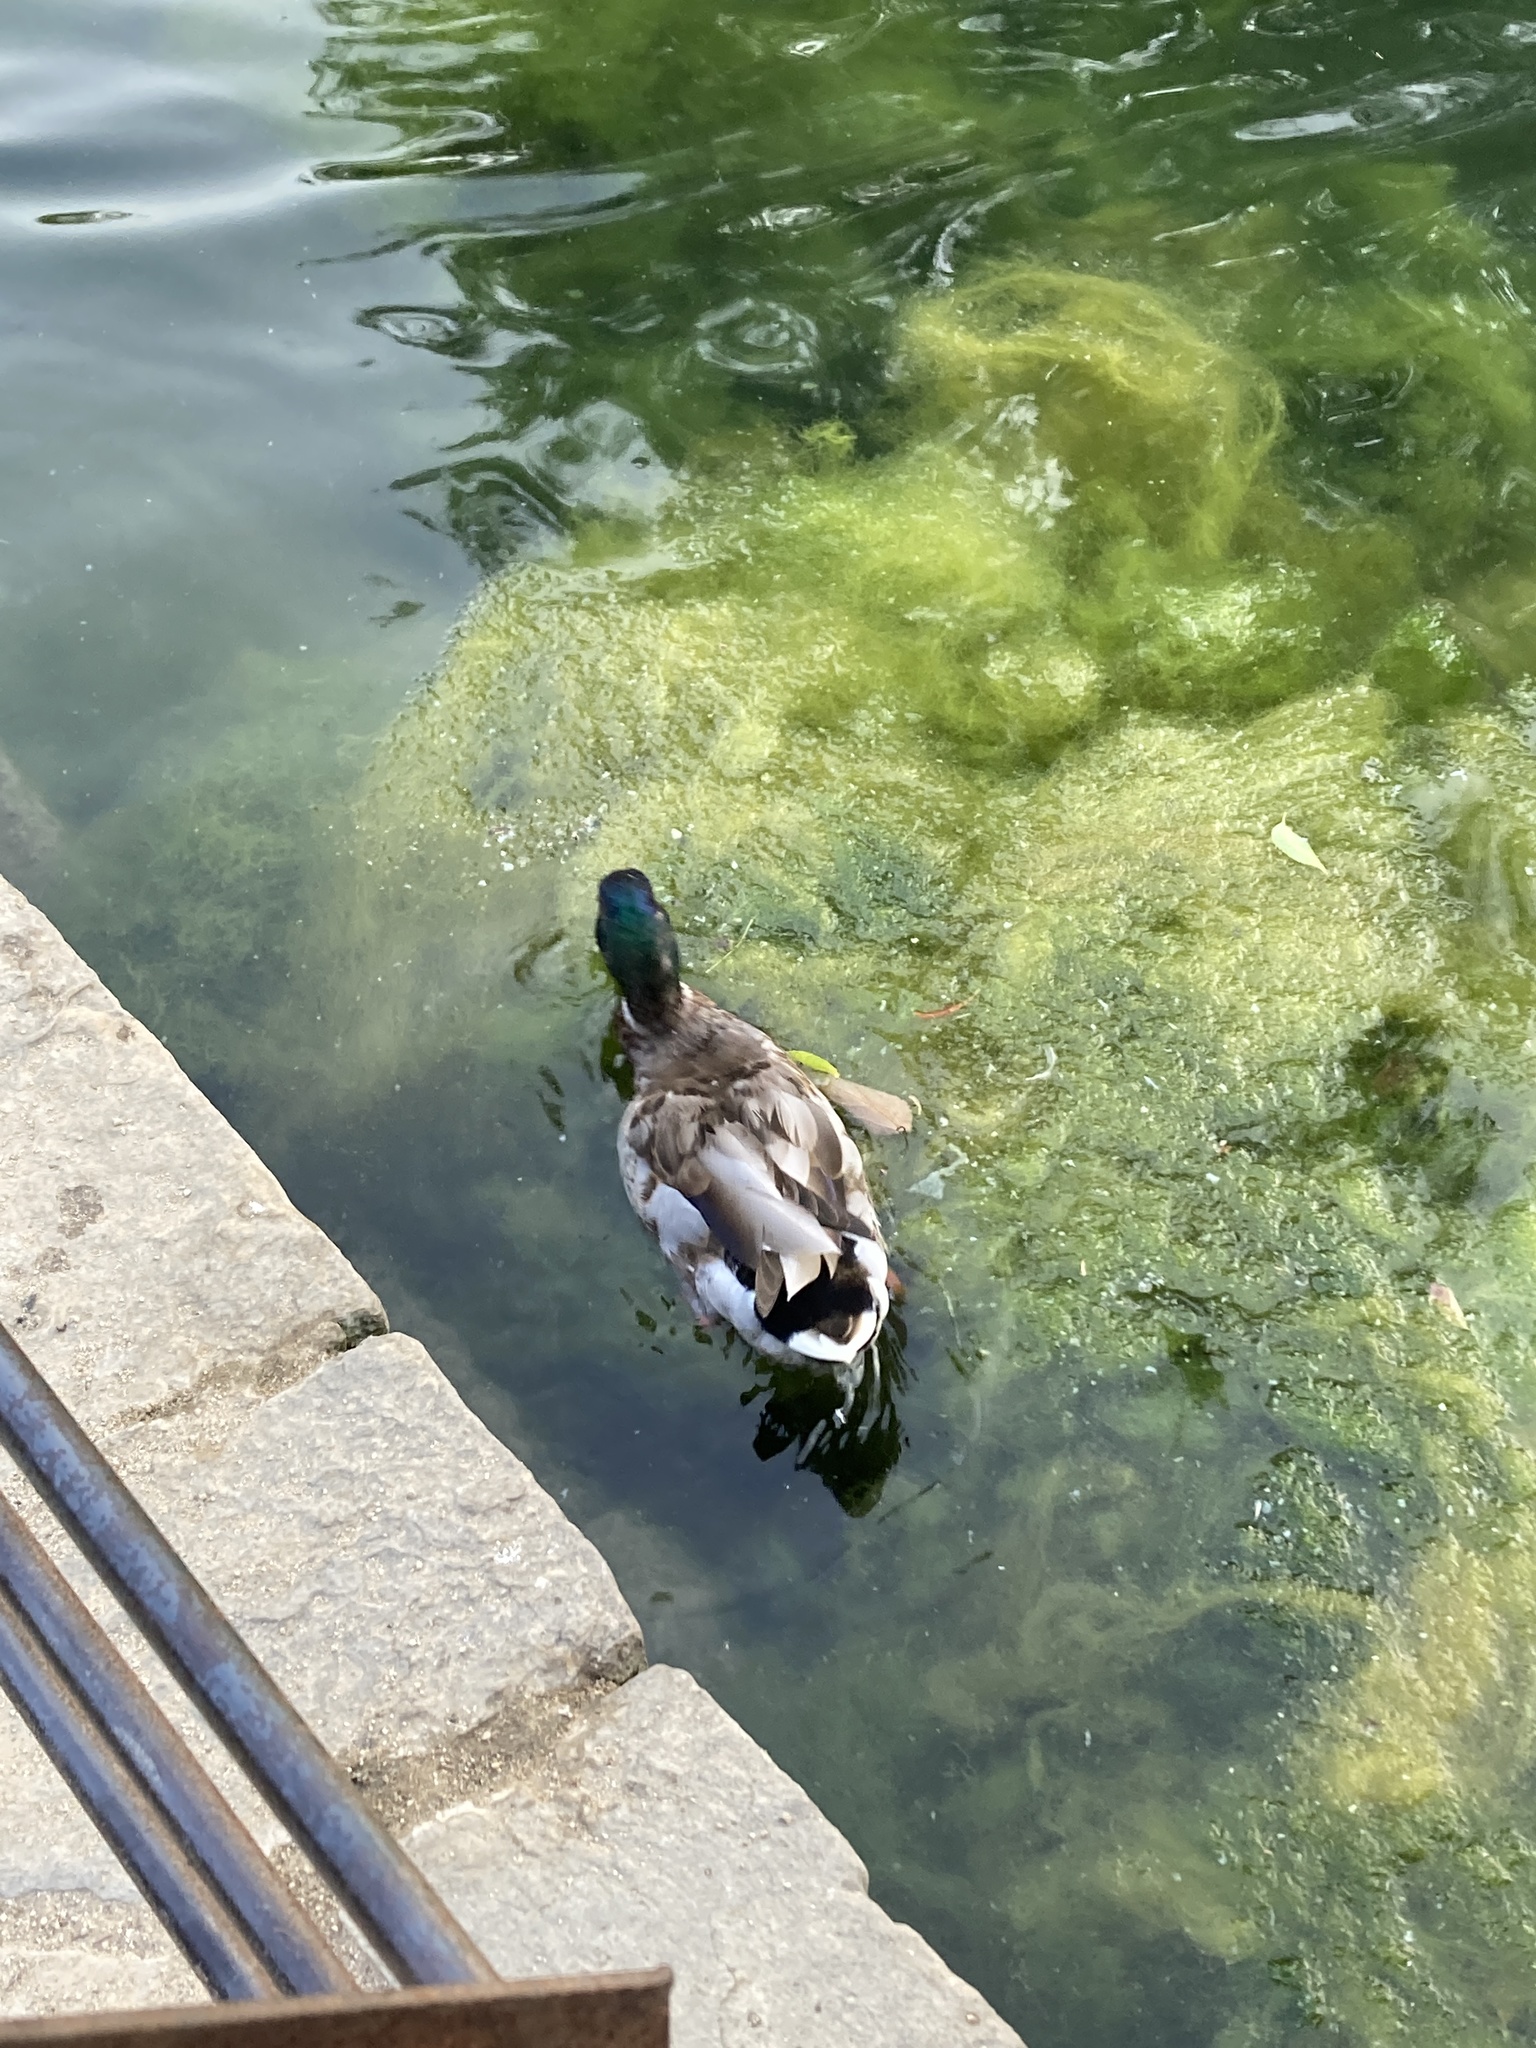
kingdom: Animalia
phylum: Chordata
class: Aves
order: Anseriformes
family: Anatidae
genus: Anas
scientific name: Anas platyrhynchos
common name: Mallard
